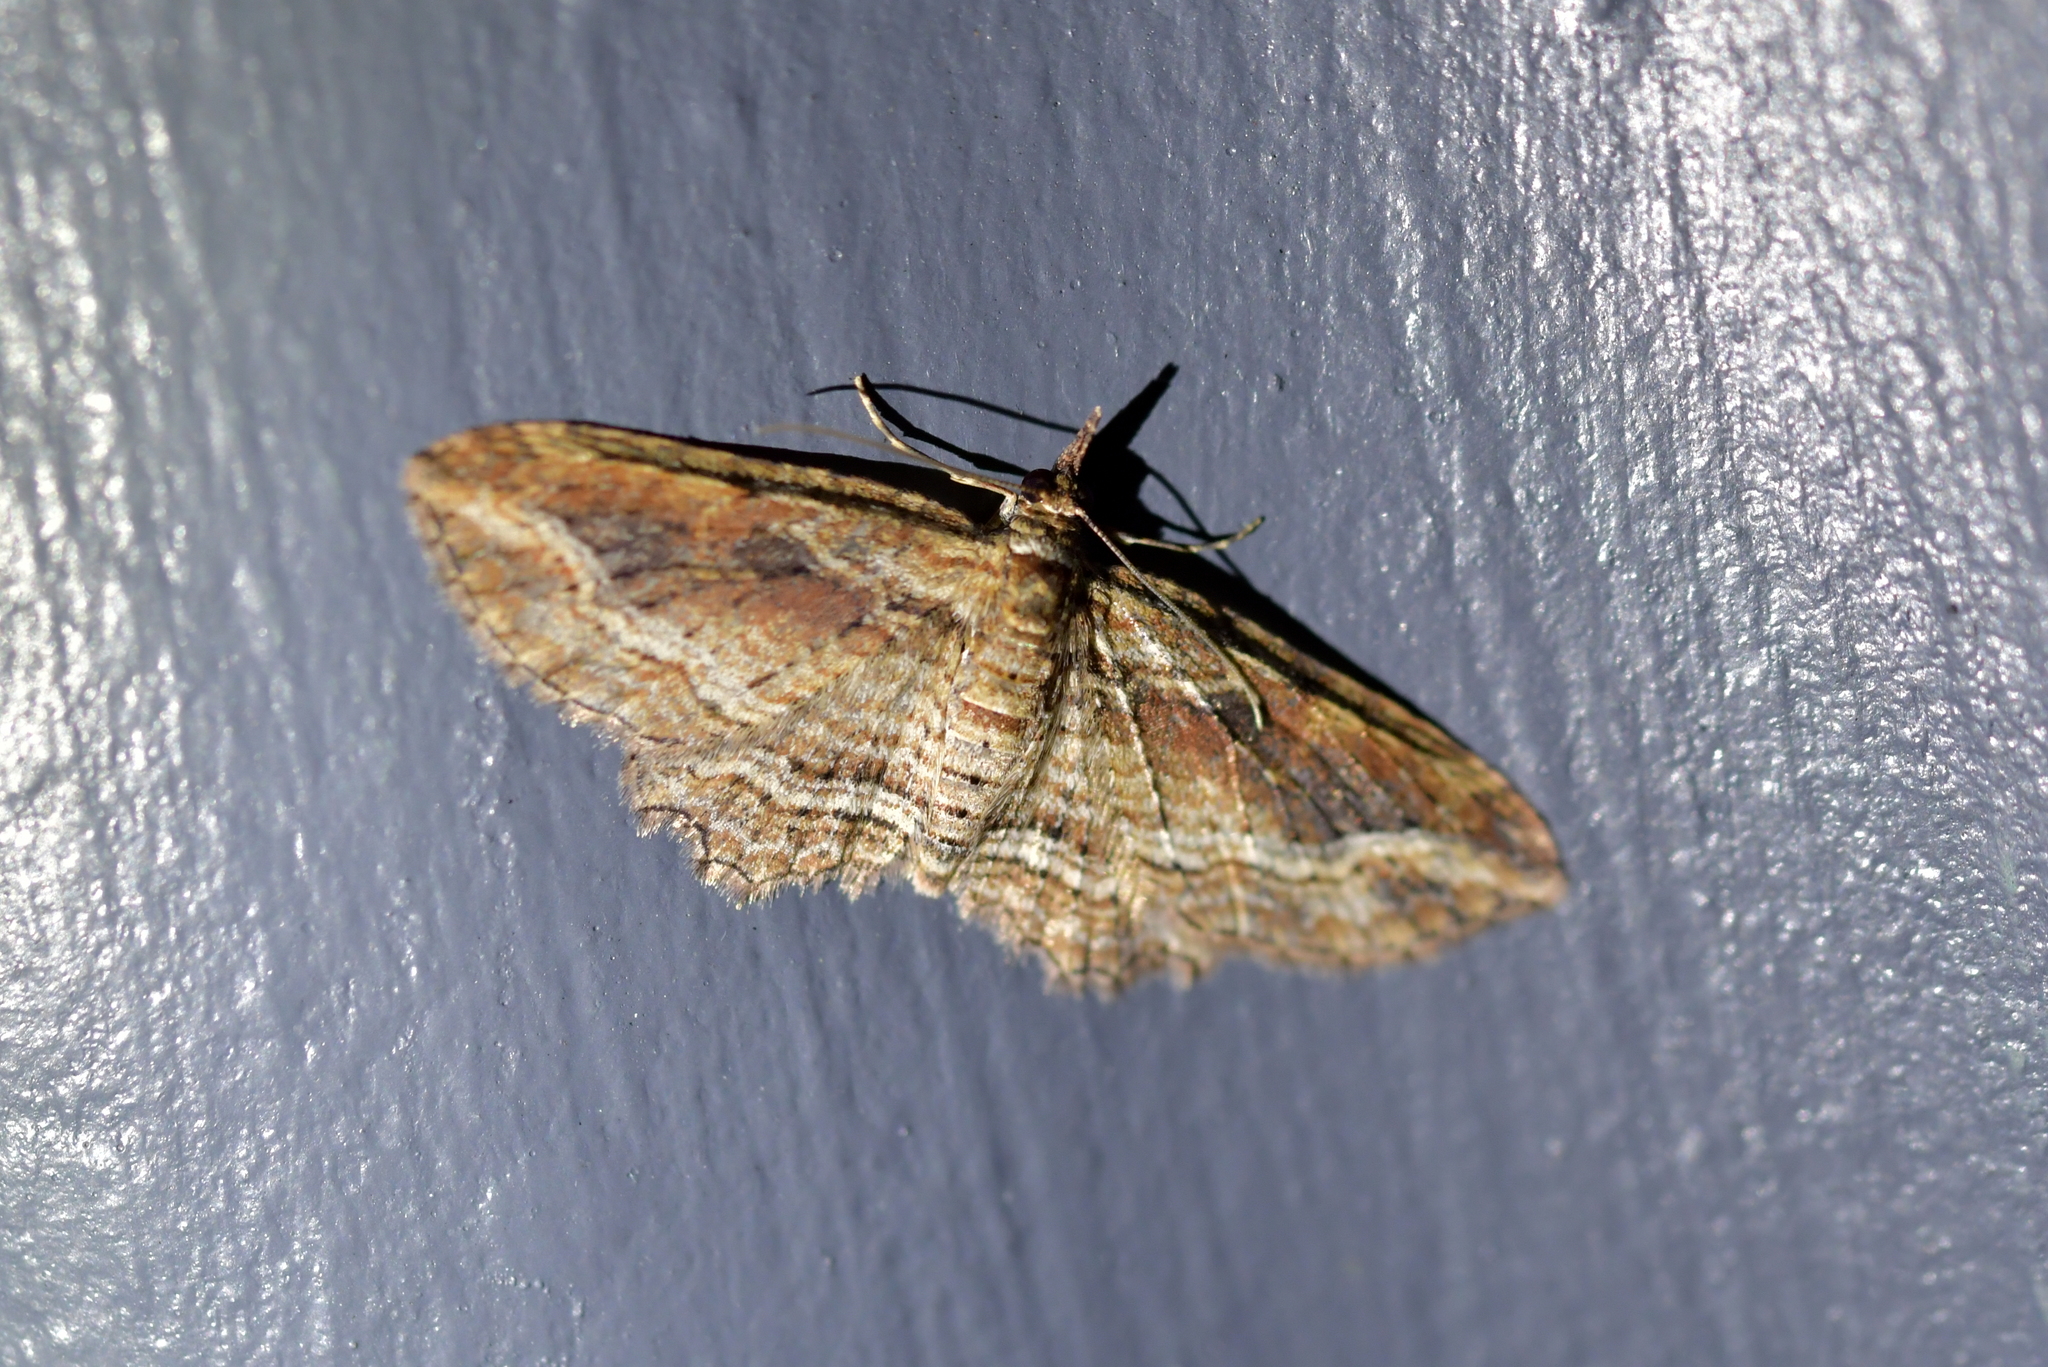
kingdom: Animalia
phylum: Arthropoda
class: Insecta
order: Lepidoptera
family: Geometridae
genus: Chloroclystis
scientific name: Chloroclystis filata
